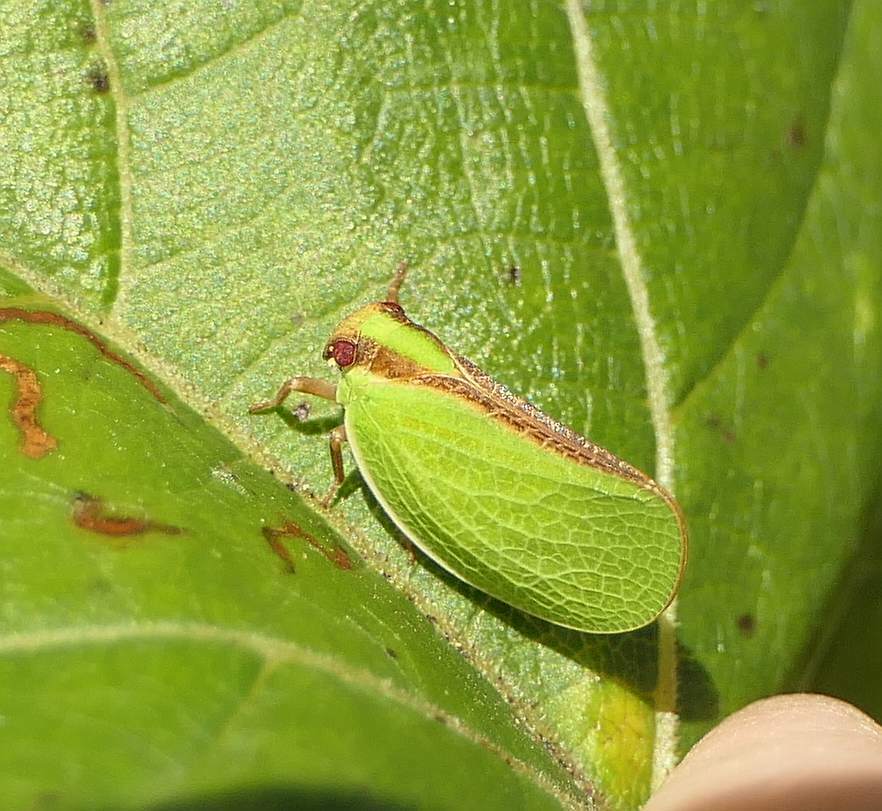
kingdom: Animalia
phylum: Arthropoda
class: Insecta
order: Hemiptera
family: Acanaloniidae
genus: Acanalonia
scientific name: Acanalonia bivittata
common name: Two-striped planthopper
